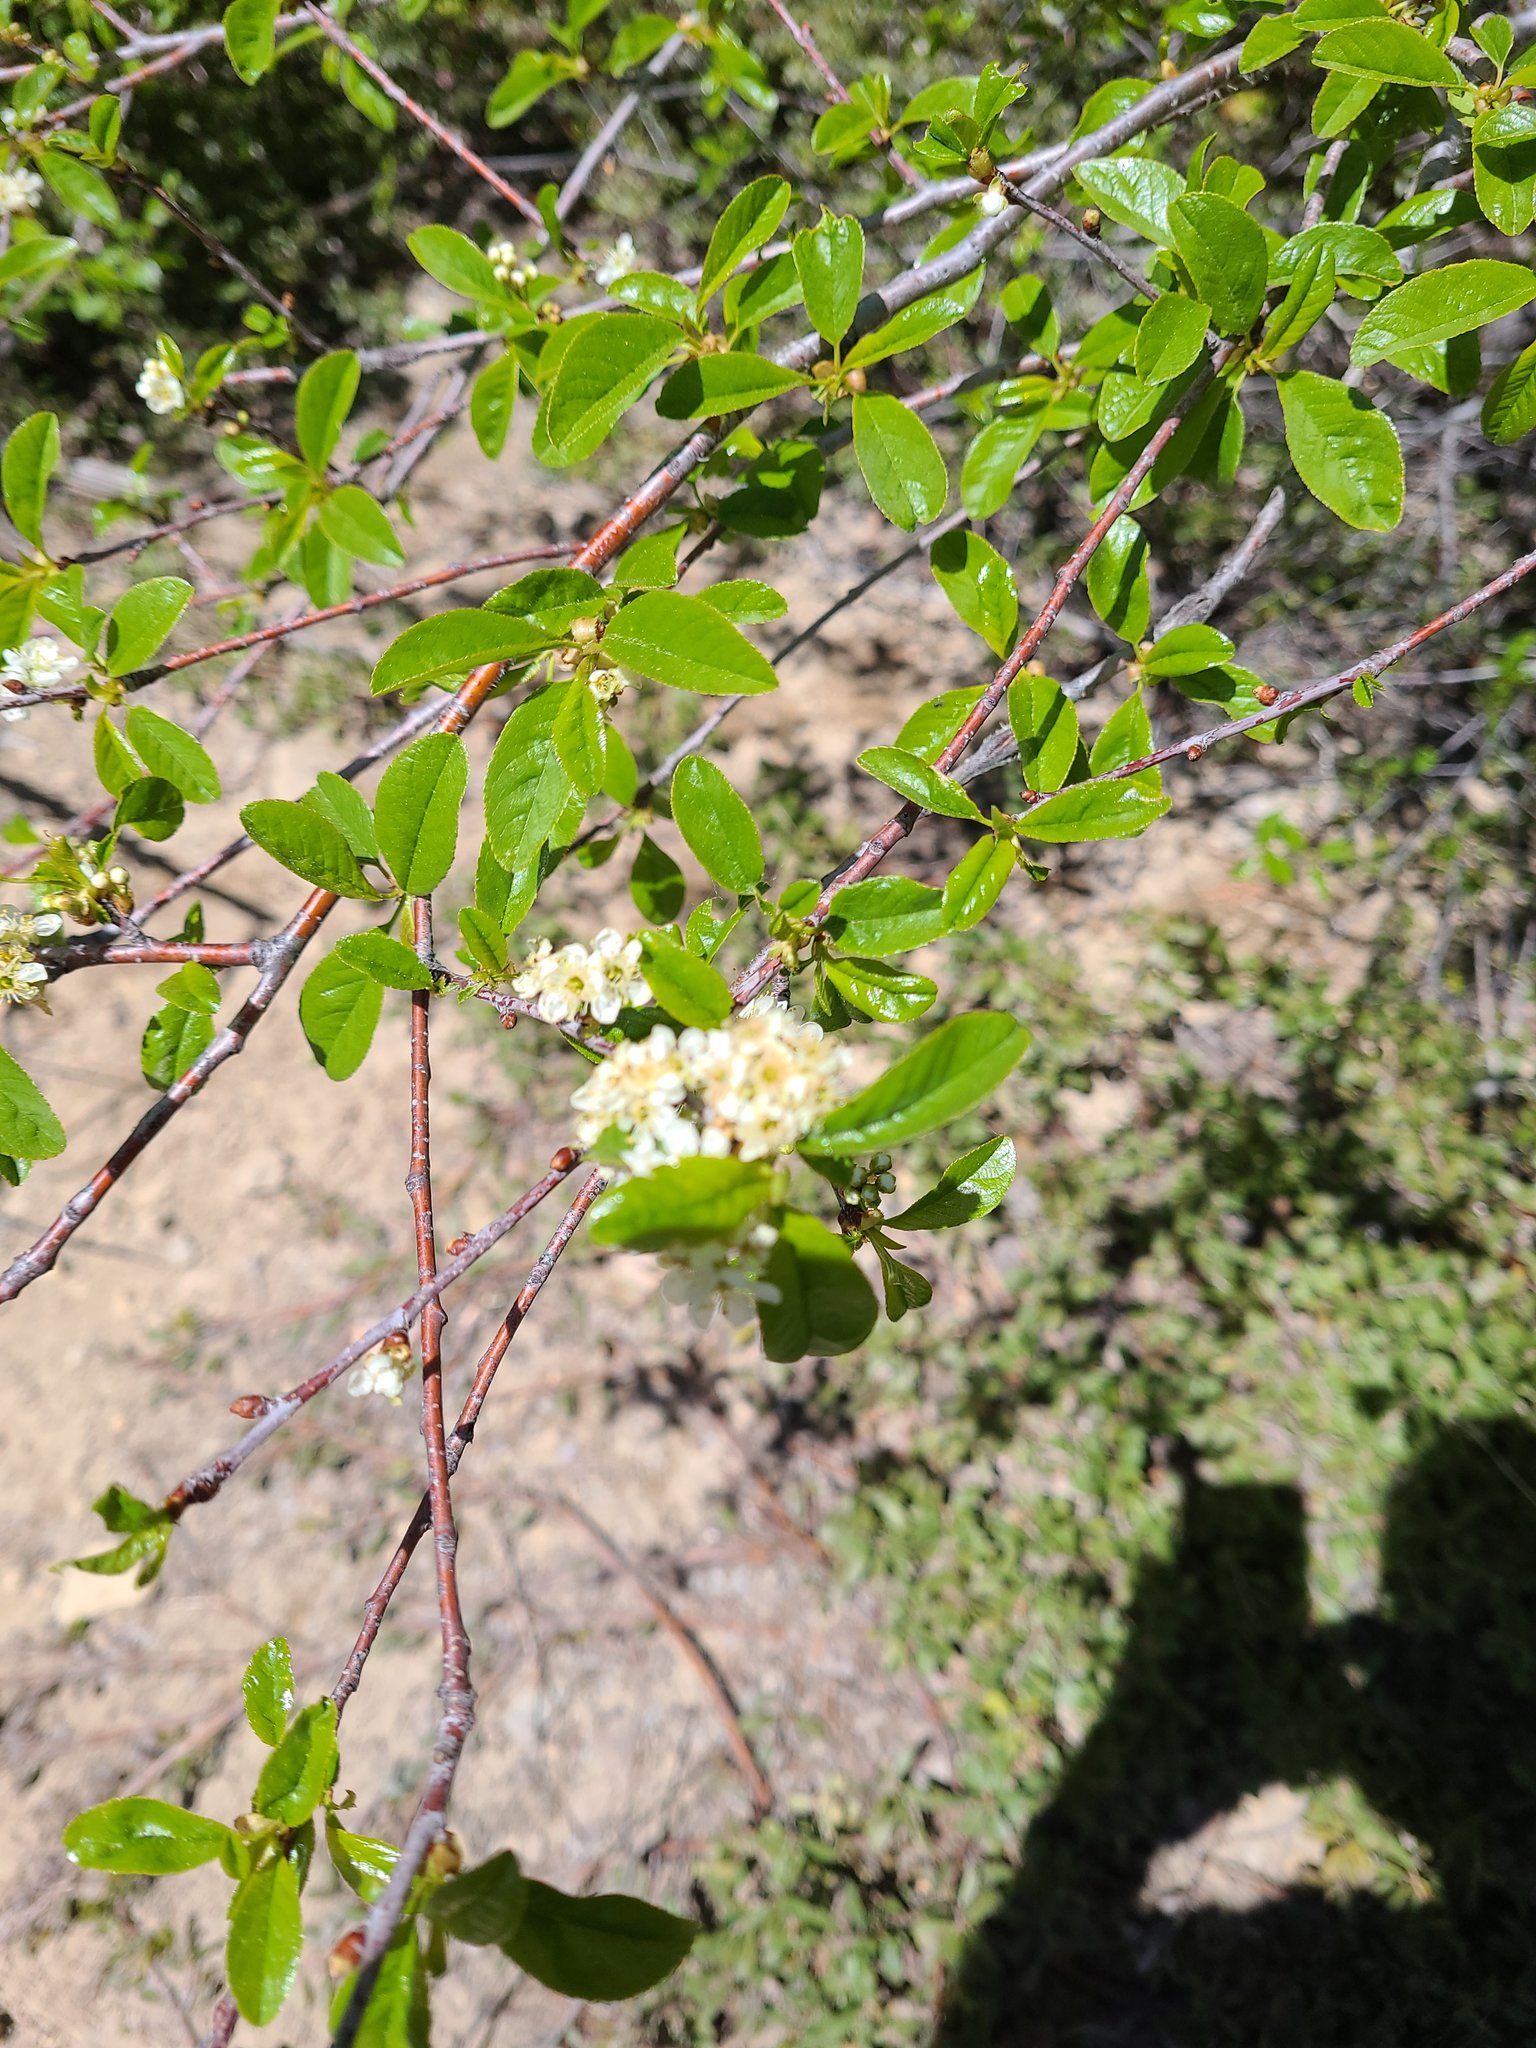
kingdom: Plantae
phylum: Tracheophyta
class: Magnoliopsida
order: Rosales
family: Rosaceae
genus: Prunus
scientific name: Prunus emarginata
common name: Bitter cherry
